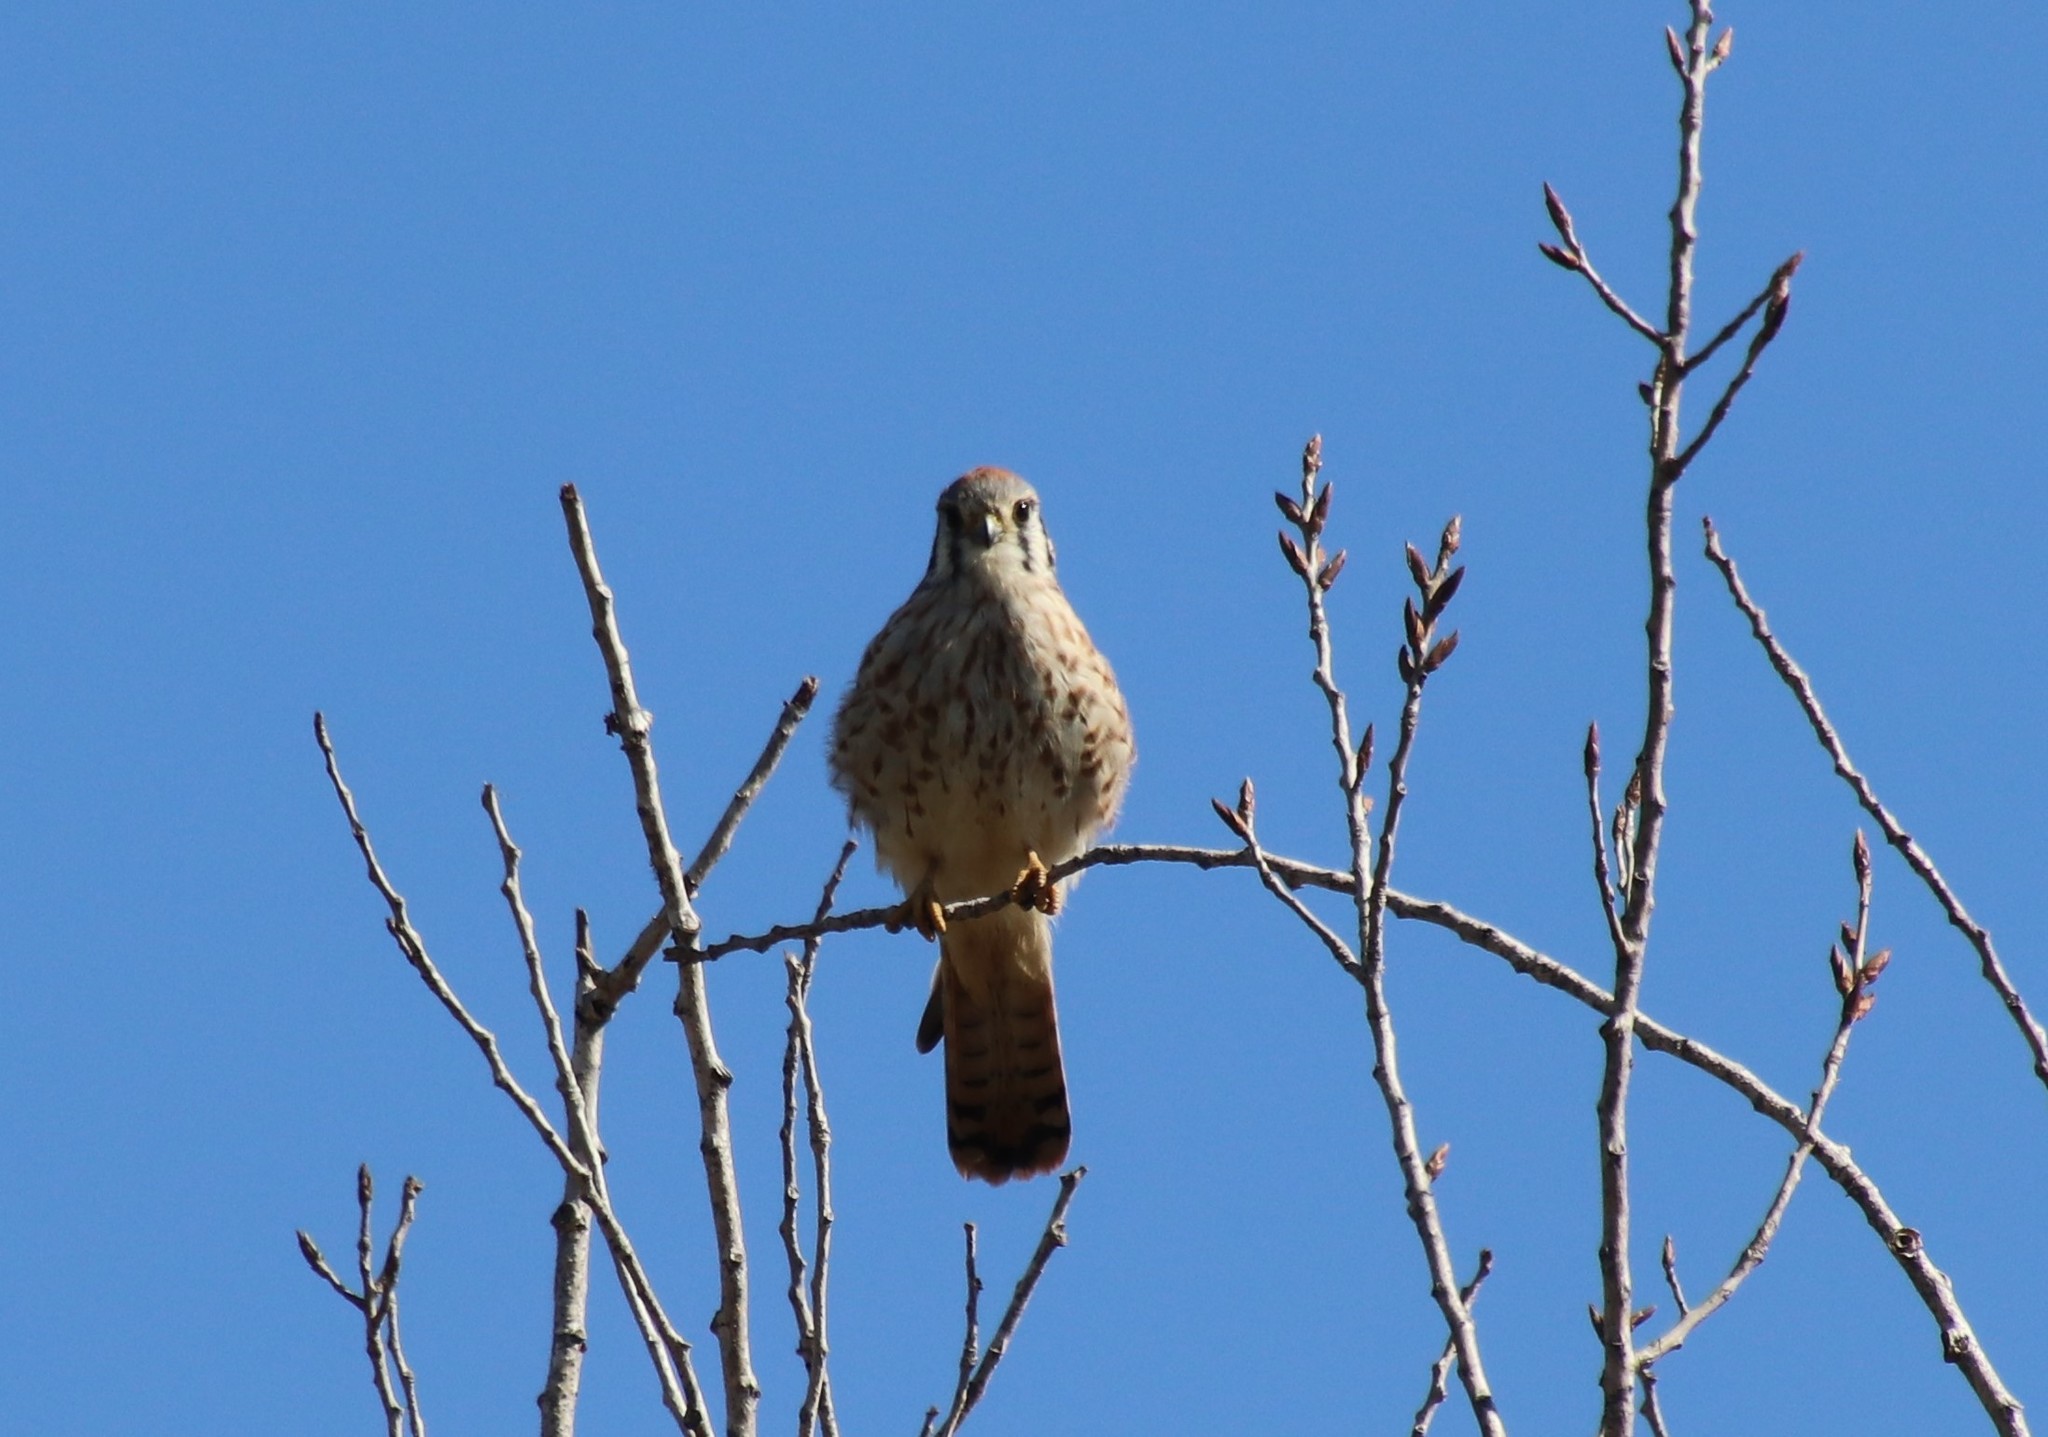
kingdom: Animalia
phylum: Chordata
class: Aves
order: Falconiformes
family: Falconidae
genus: Falco
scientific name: Falco sparverius
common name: American kestrel
